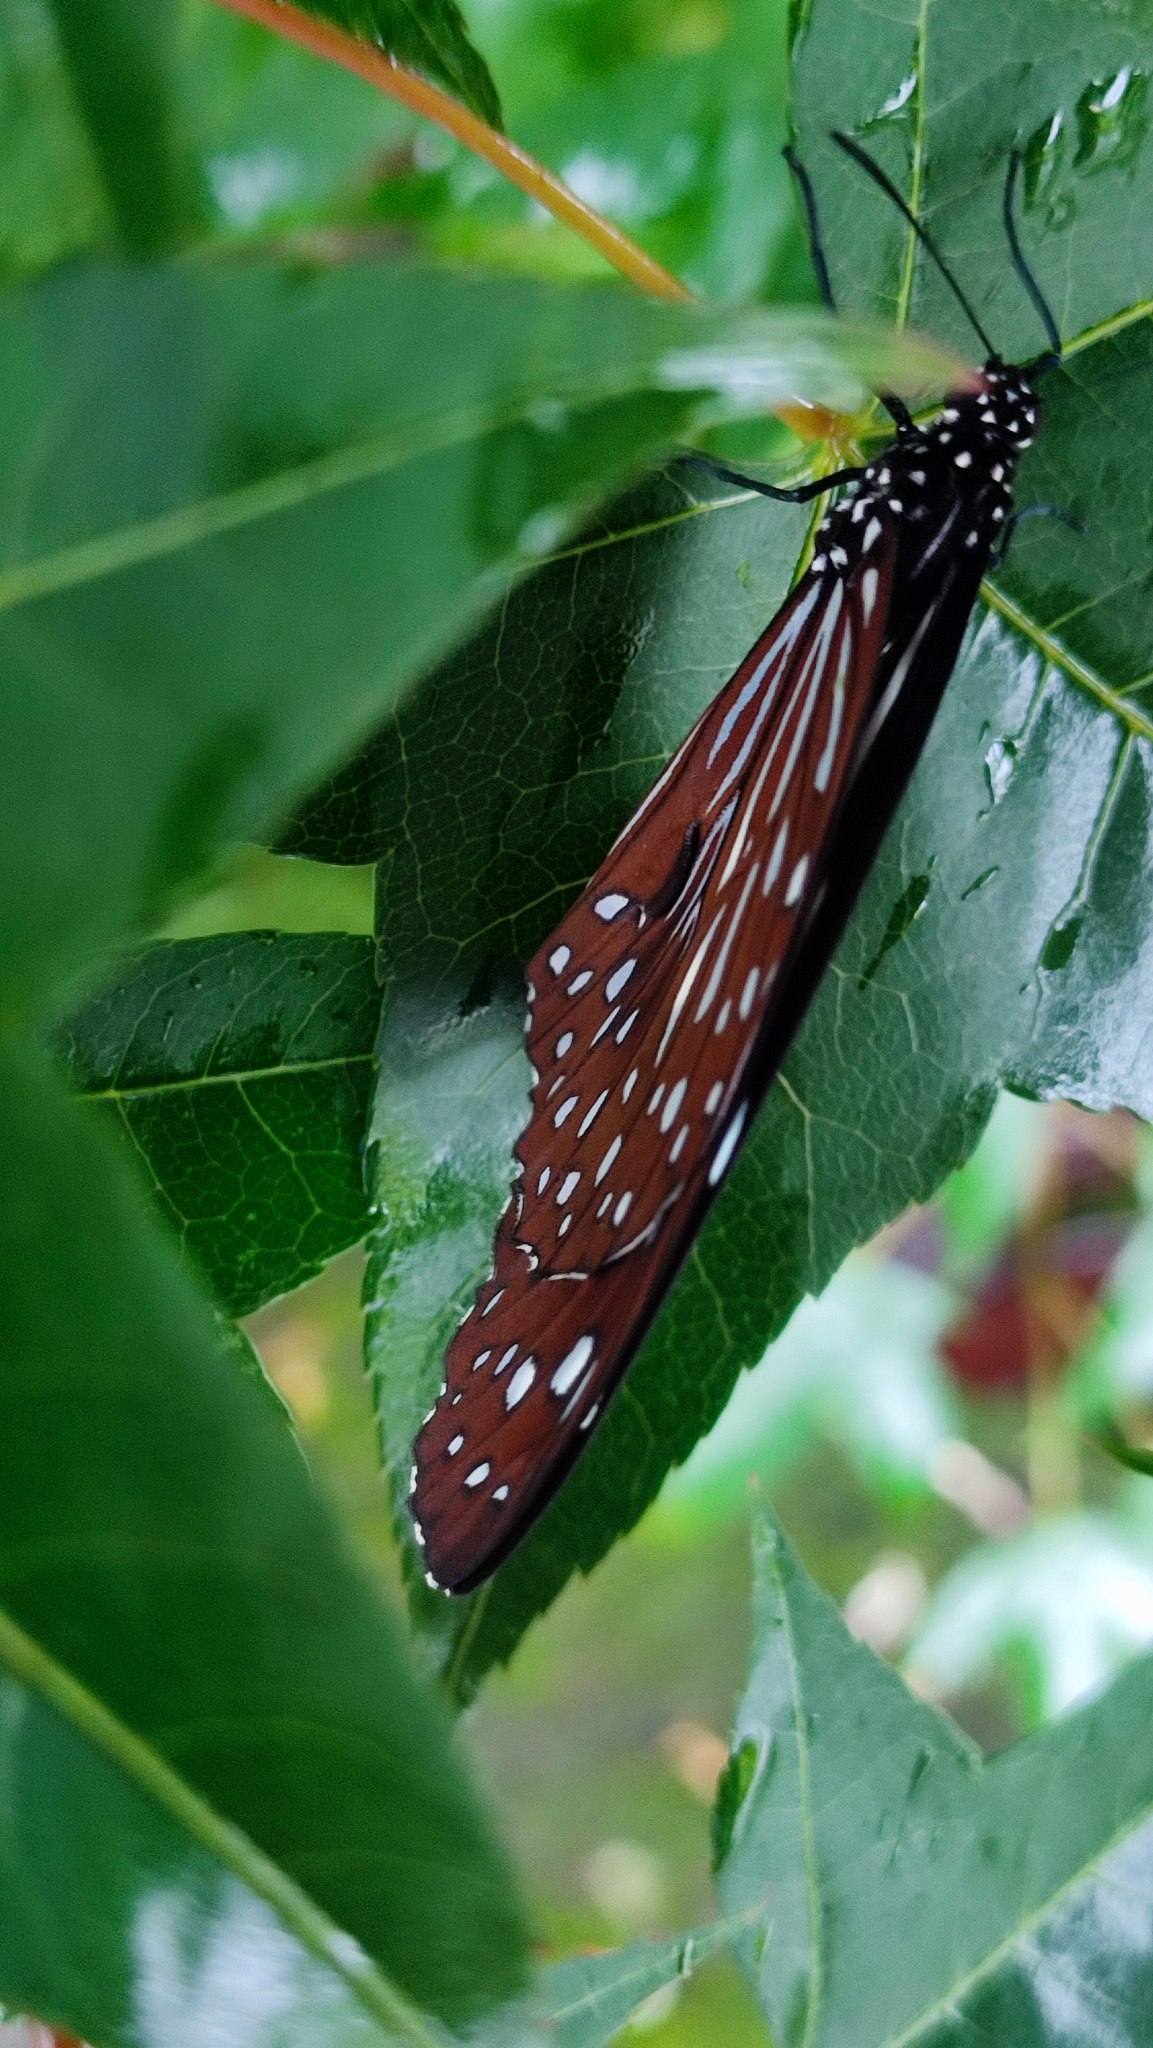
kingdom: Animalia
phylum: Arthropoda
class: Insecta
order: Lepidoptera
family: Nymphalidae
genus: Tirumala
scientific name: Tirumala septentrionis
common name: Dark blue tiger butterfly
